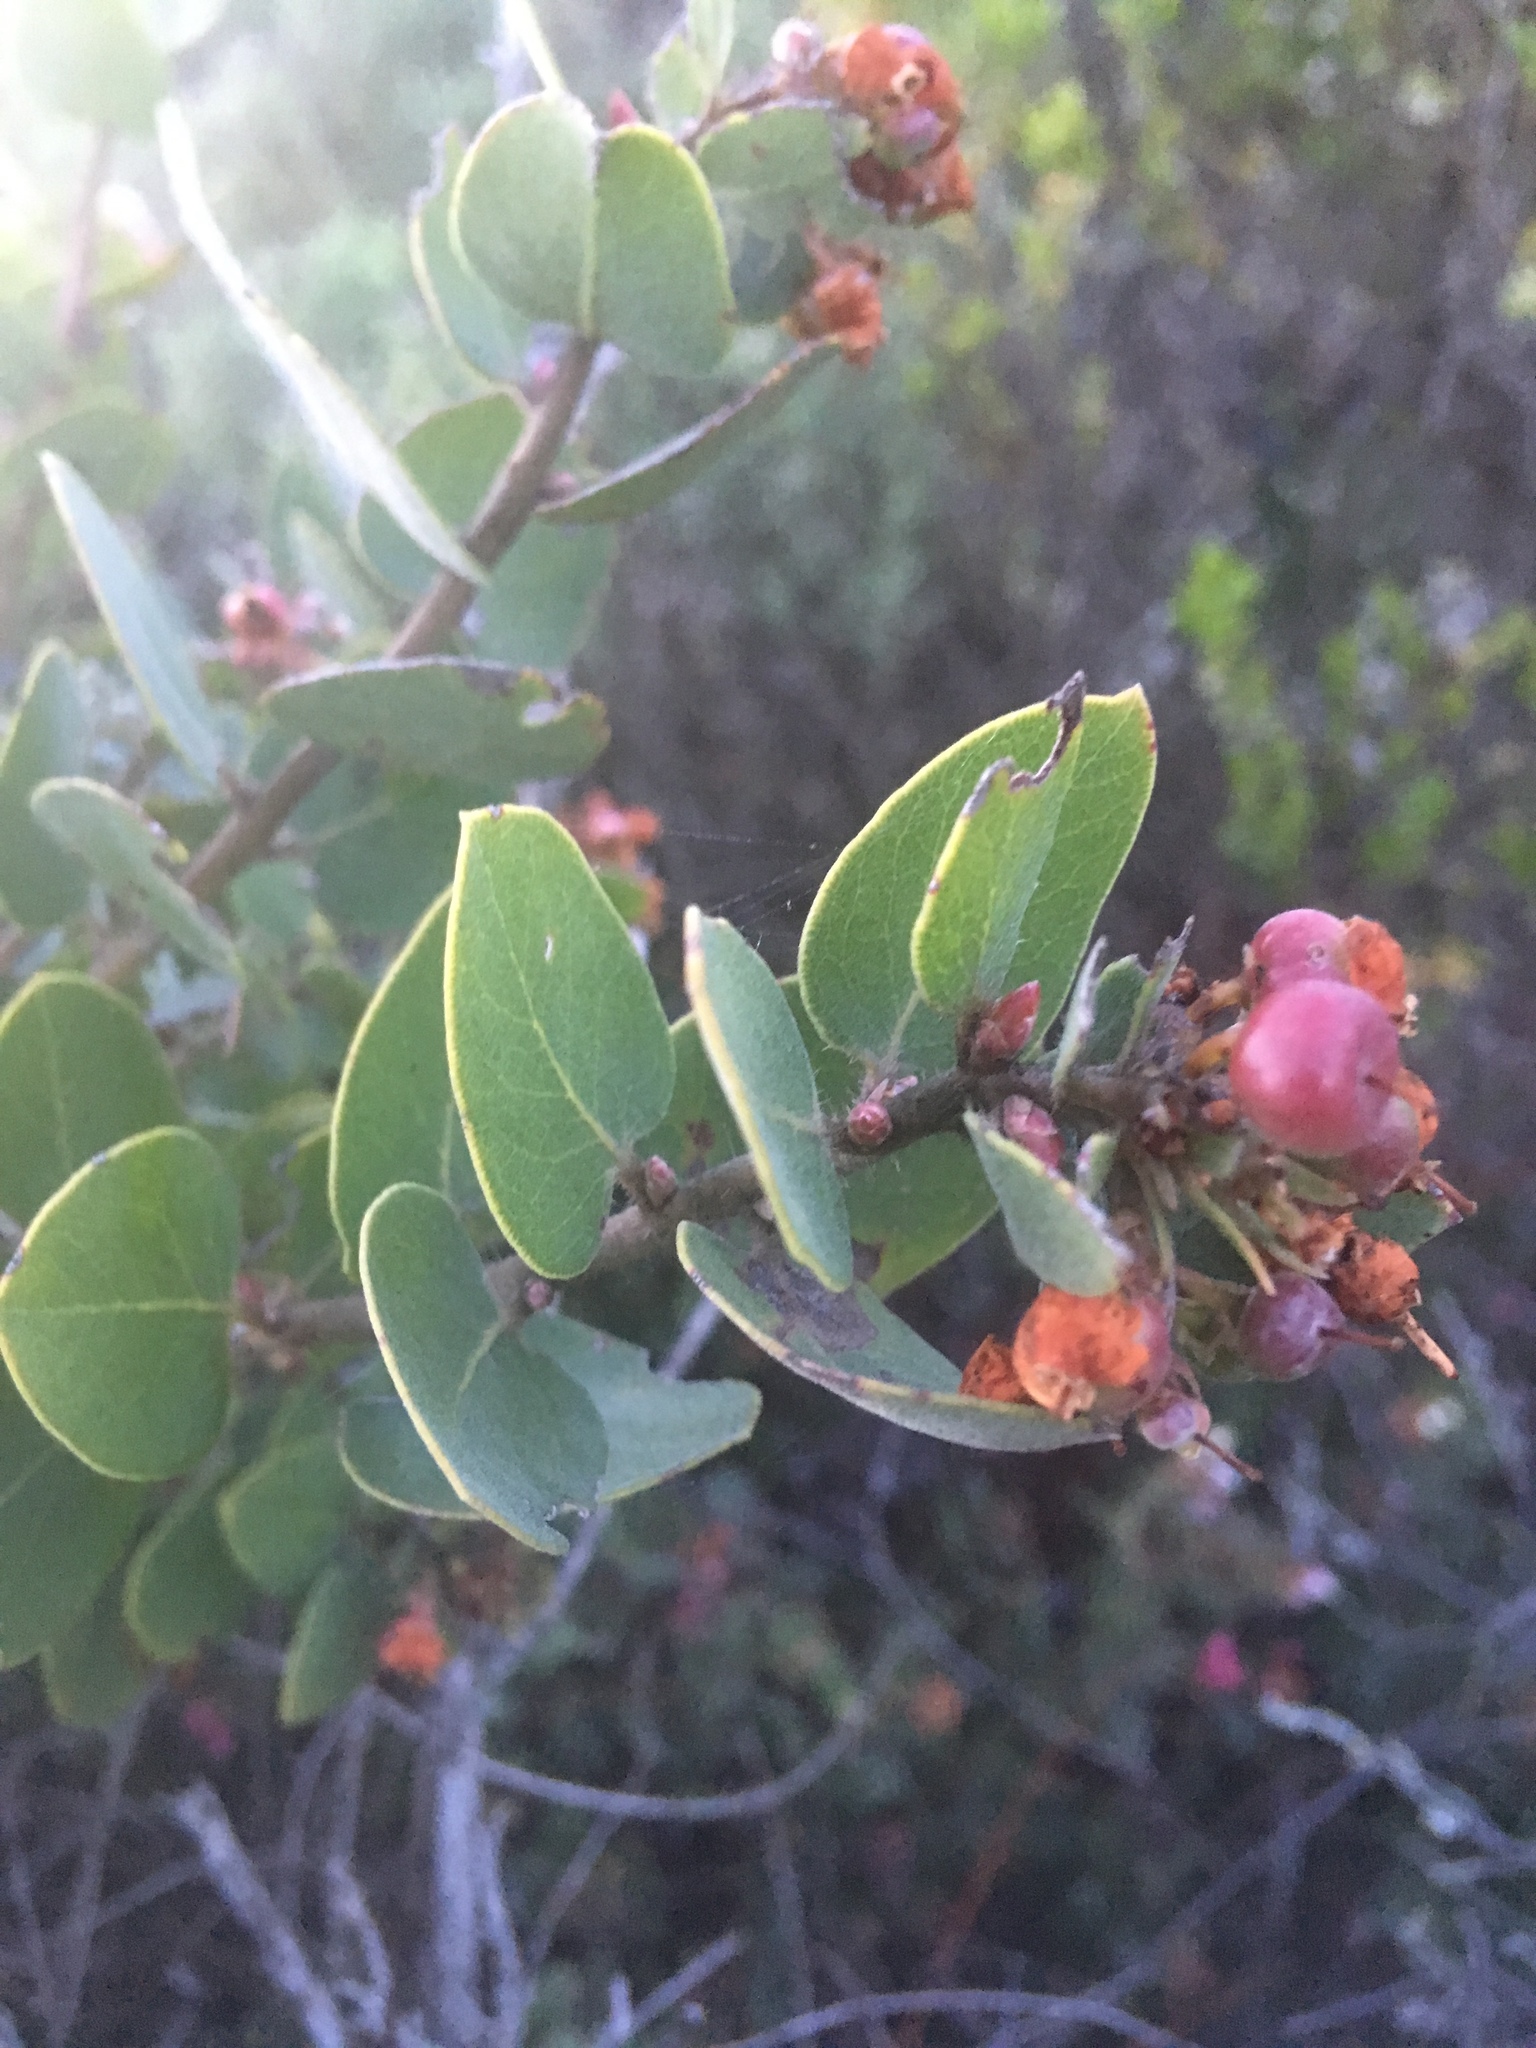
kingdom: Plantae
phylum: Tracheophyta
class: Magnoliopsida
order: Ericales
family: Ericaceae
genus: Arctostaphylos
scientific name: Arctostaphylos morroensis
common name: Morro manzanita
